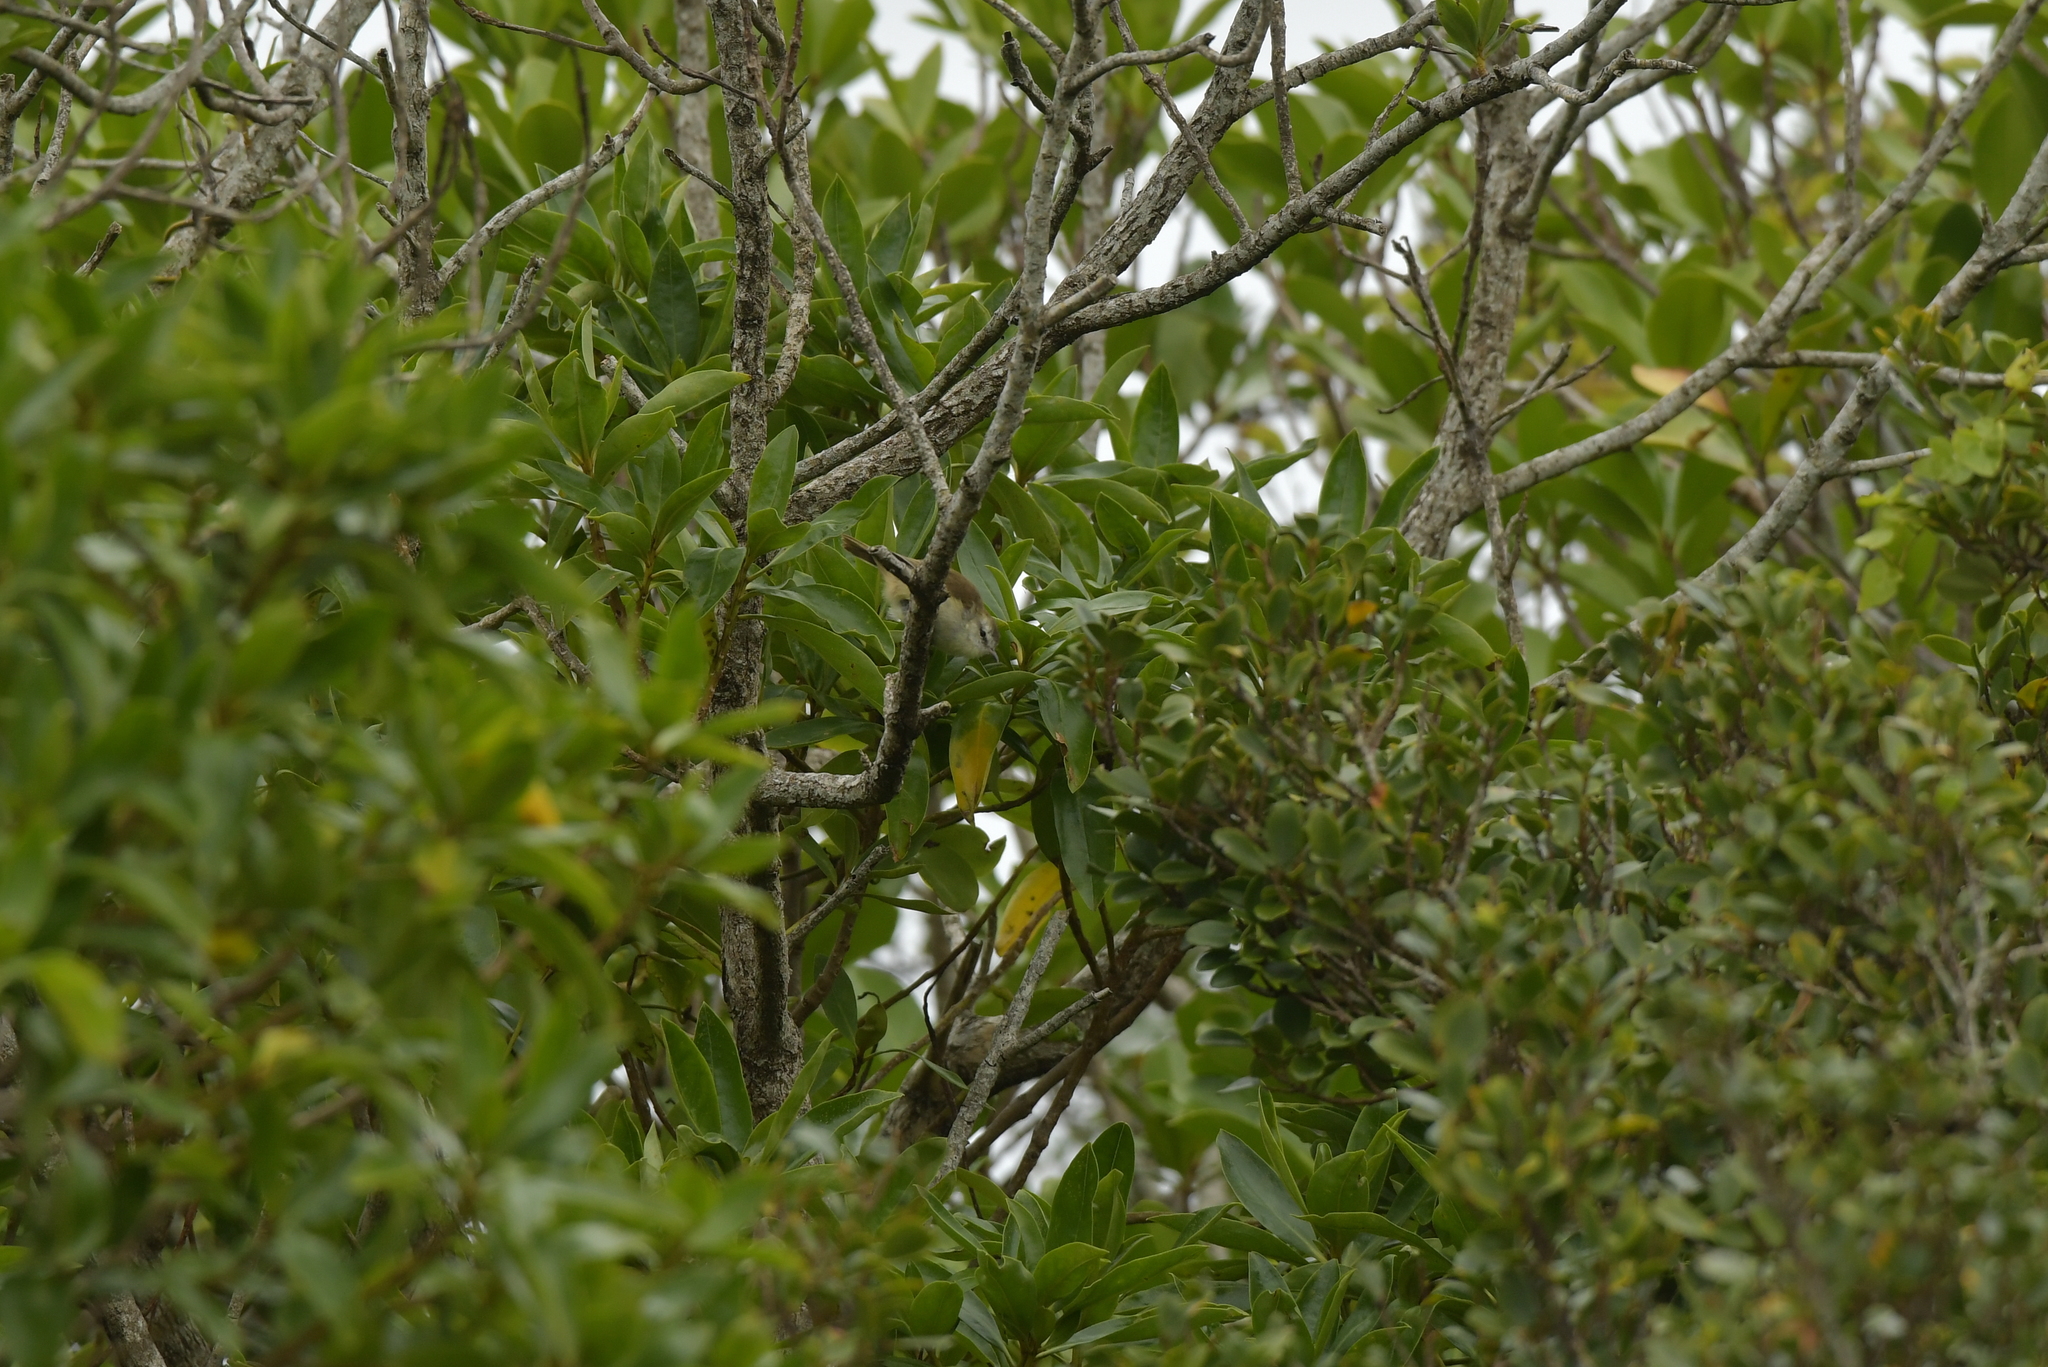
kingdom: Animalia
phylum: Chordata
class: Aves
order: Passeriformes
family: Acanthizidae
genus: Gerygone
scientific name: Gerygone albofrontata
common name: Chatham gerygone
